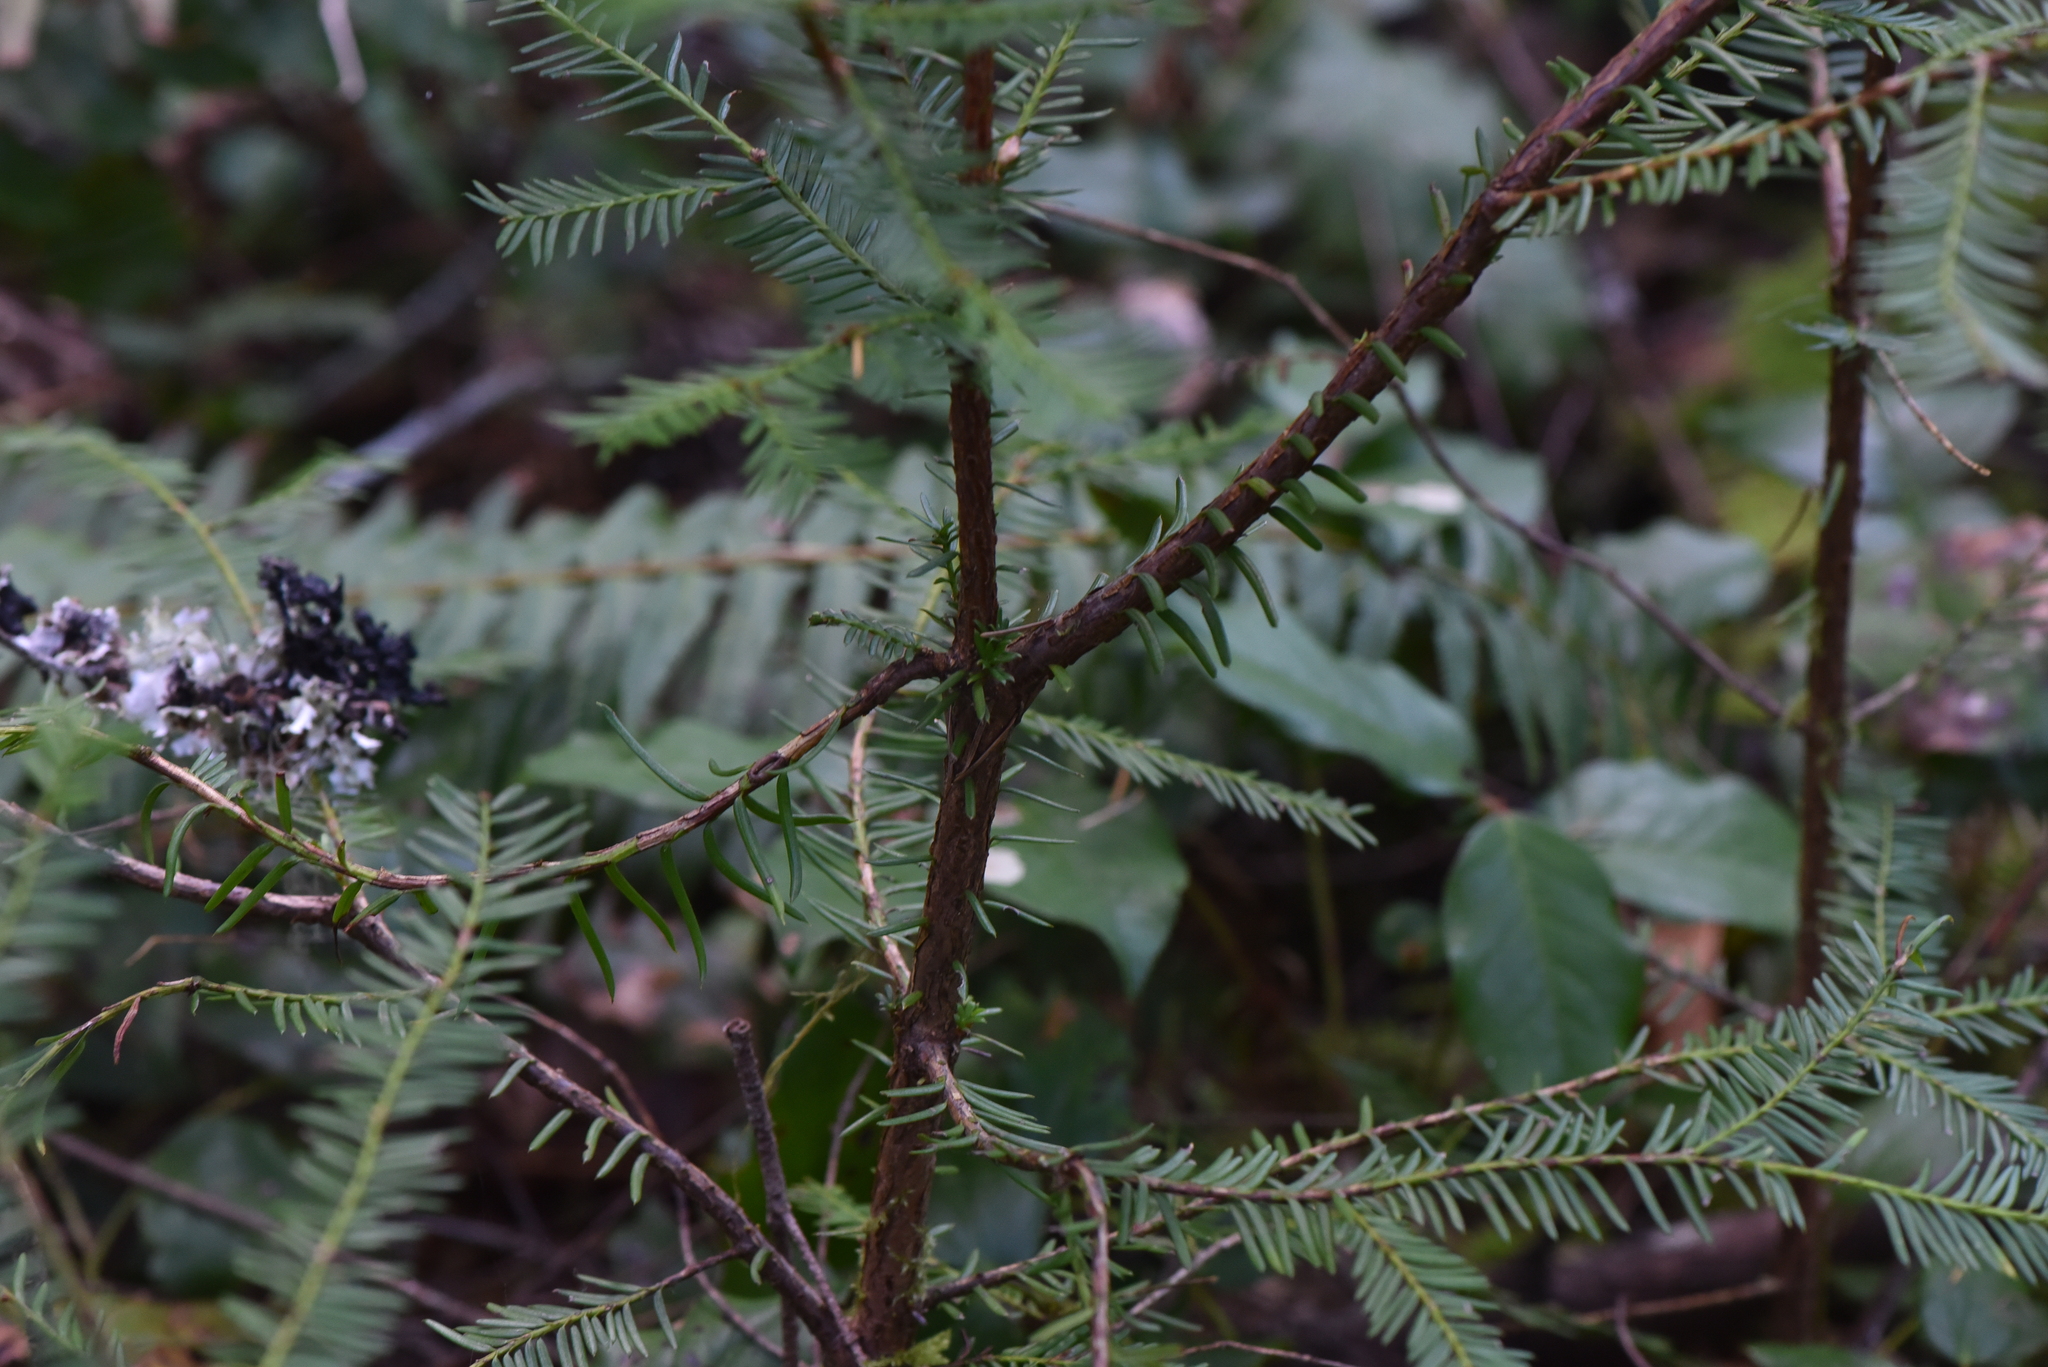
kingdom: Plantae
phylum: Tracheophyta
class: Pinopsida
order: Pinales
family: Taxaceae
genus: Taxus
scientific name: Taxus brevifolia
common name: Pacific yew
